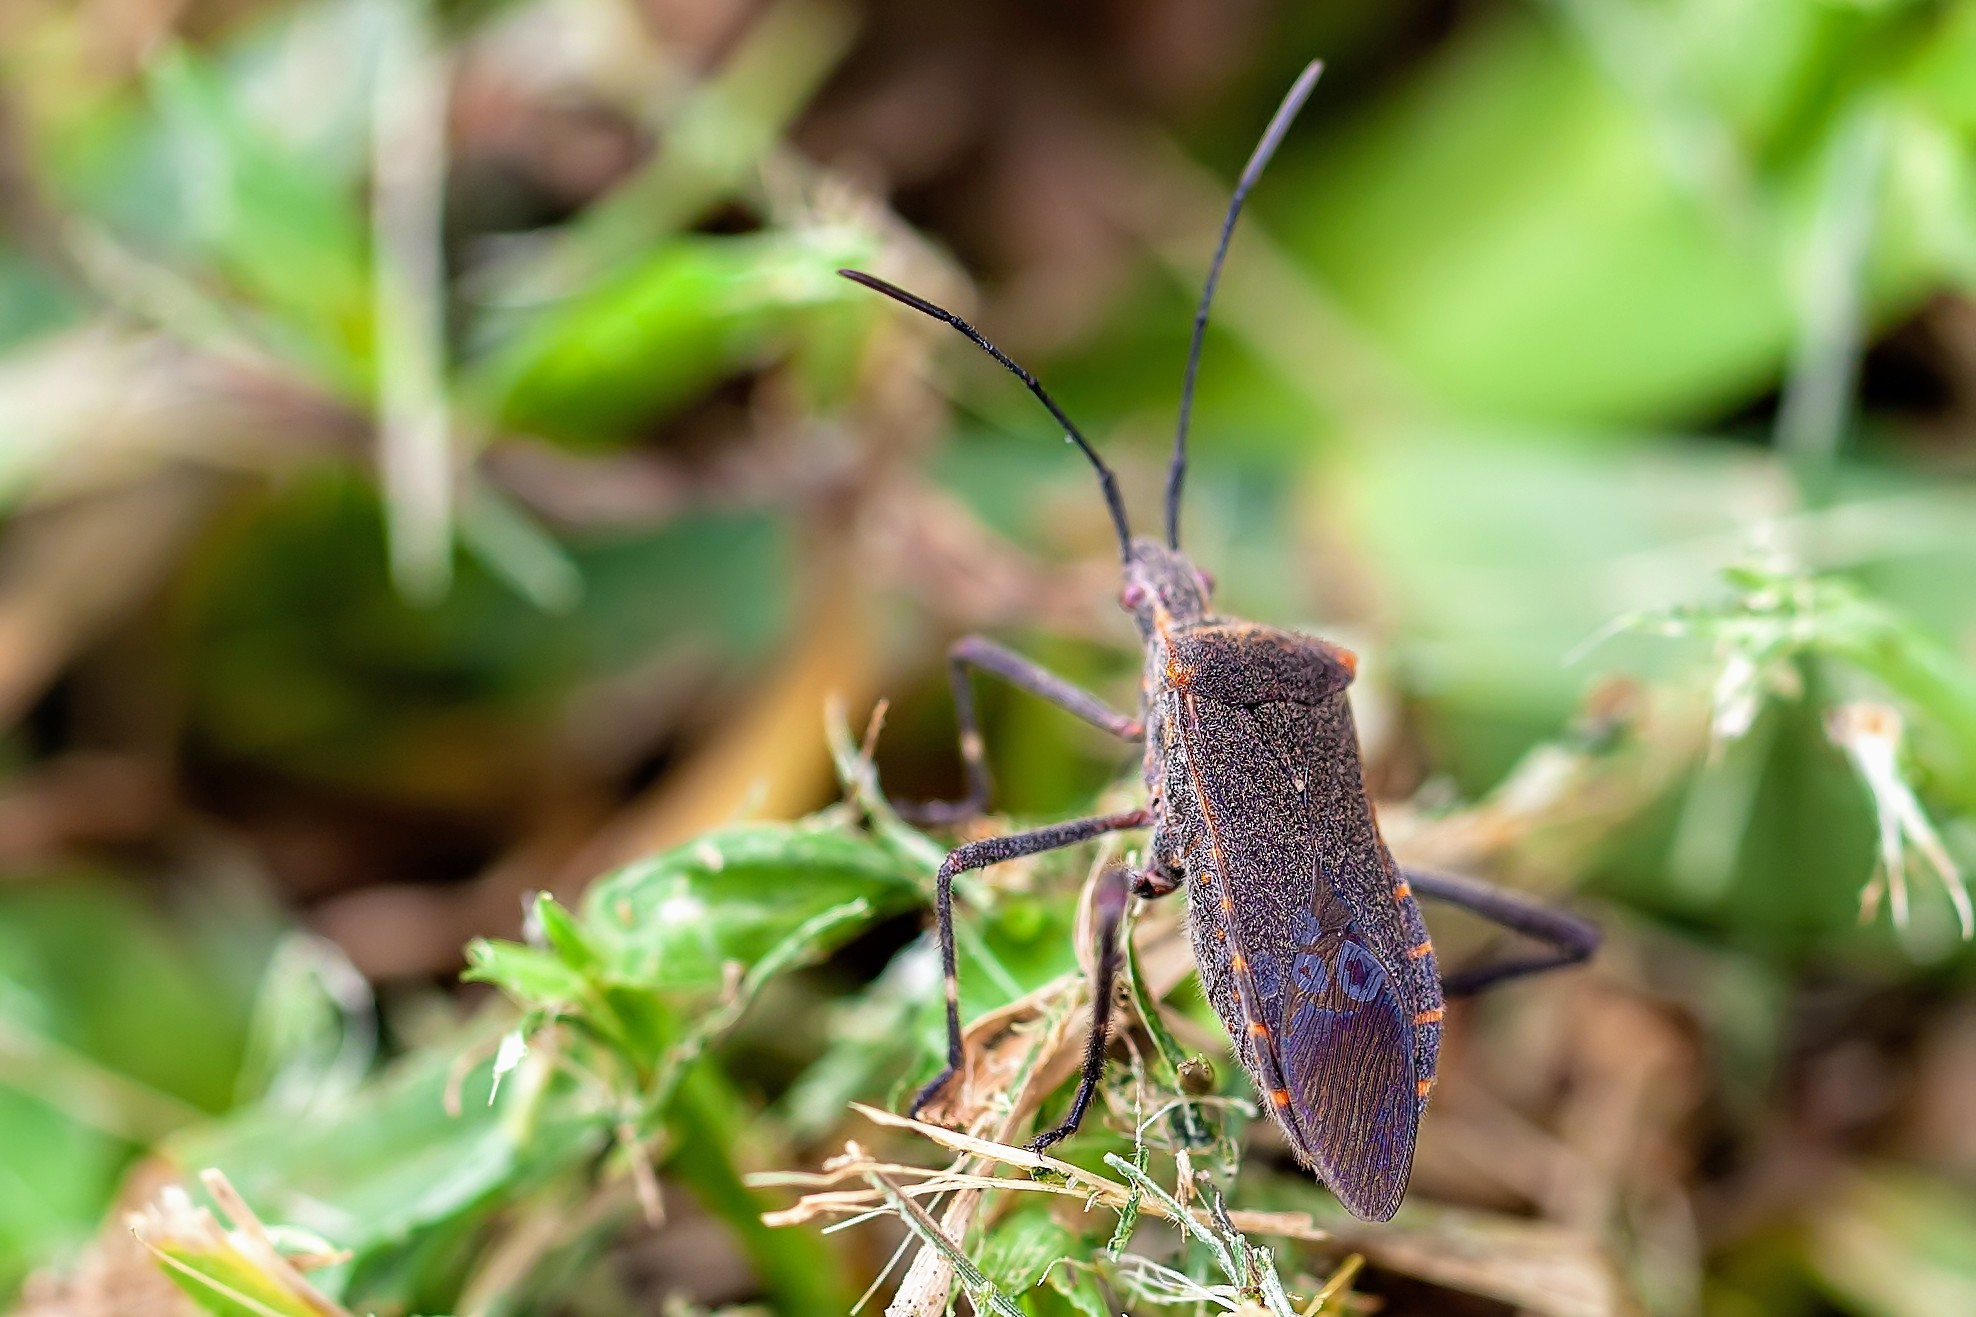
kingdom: Animalia
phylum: Arthropoda
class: Insecta
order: Hemiptera
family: Coreidae
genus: Phthiacnemia
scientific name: Phthiacnemia picta
